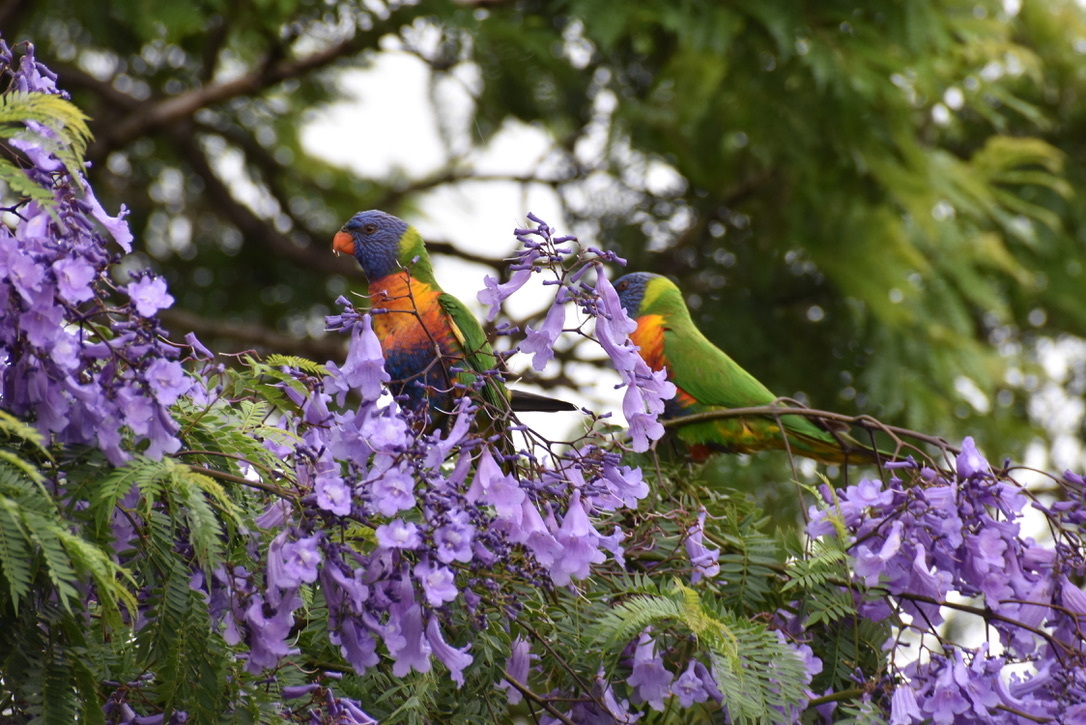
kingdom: Animalia
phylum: Chordata
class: Aves
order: Psittaciformes
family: Psittacidae
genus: Trichoglossus
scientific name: Trichoglossus haematodus
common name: Coconut lorikeet
